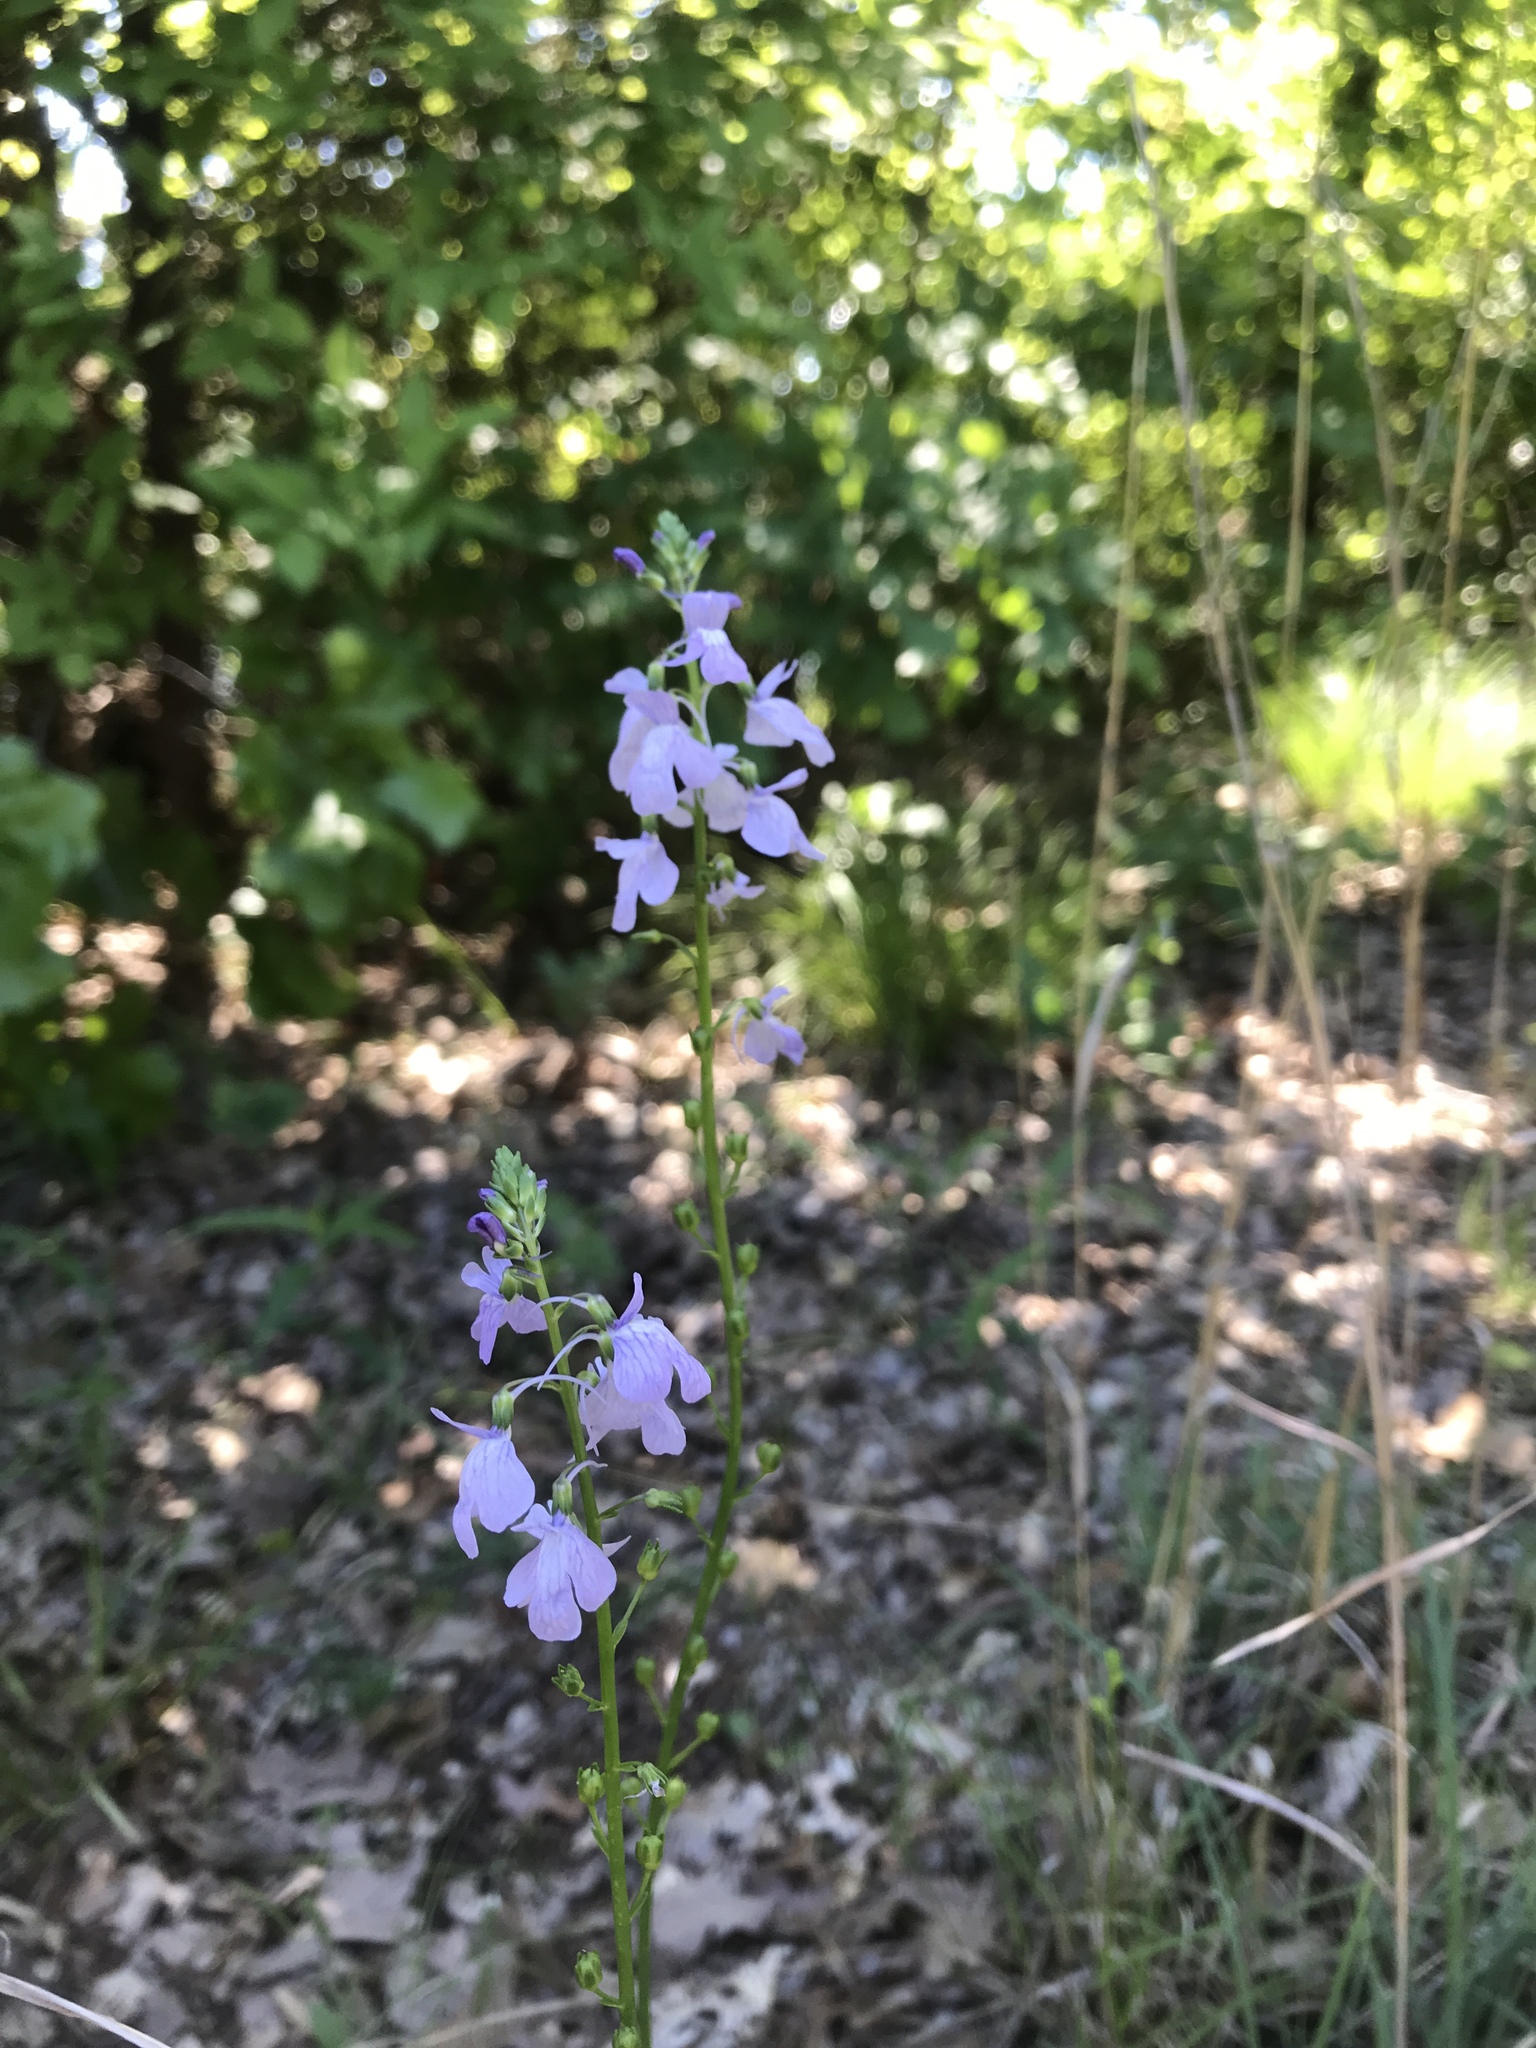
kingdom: Plantae
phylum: Tracheophyta
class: Magnoliopsida
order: Lamiales
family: Plantaginaceae
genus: Nuttallanthus
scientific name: Nuttallanthus texanus
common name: Texas toadflax
